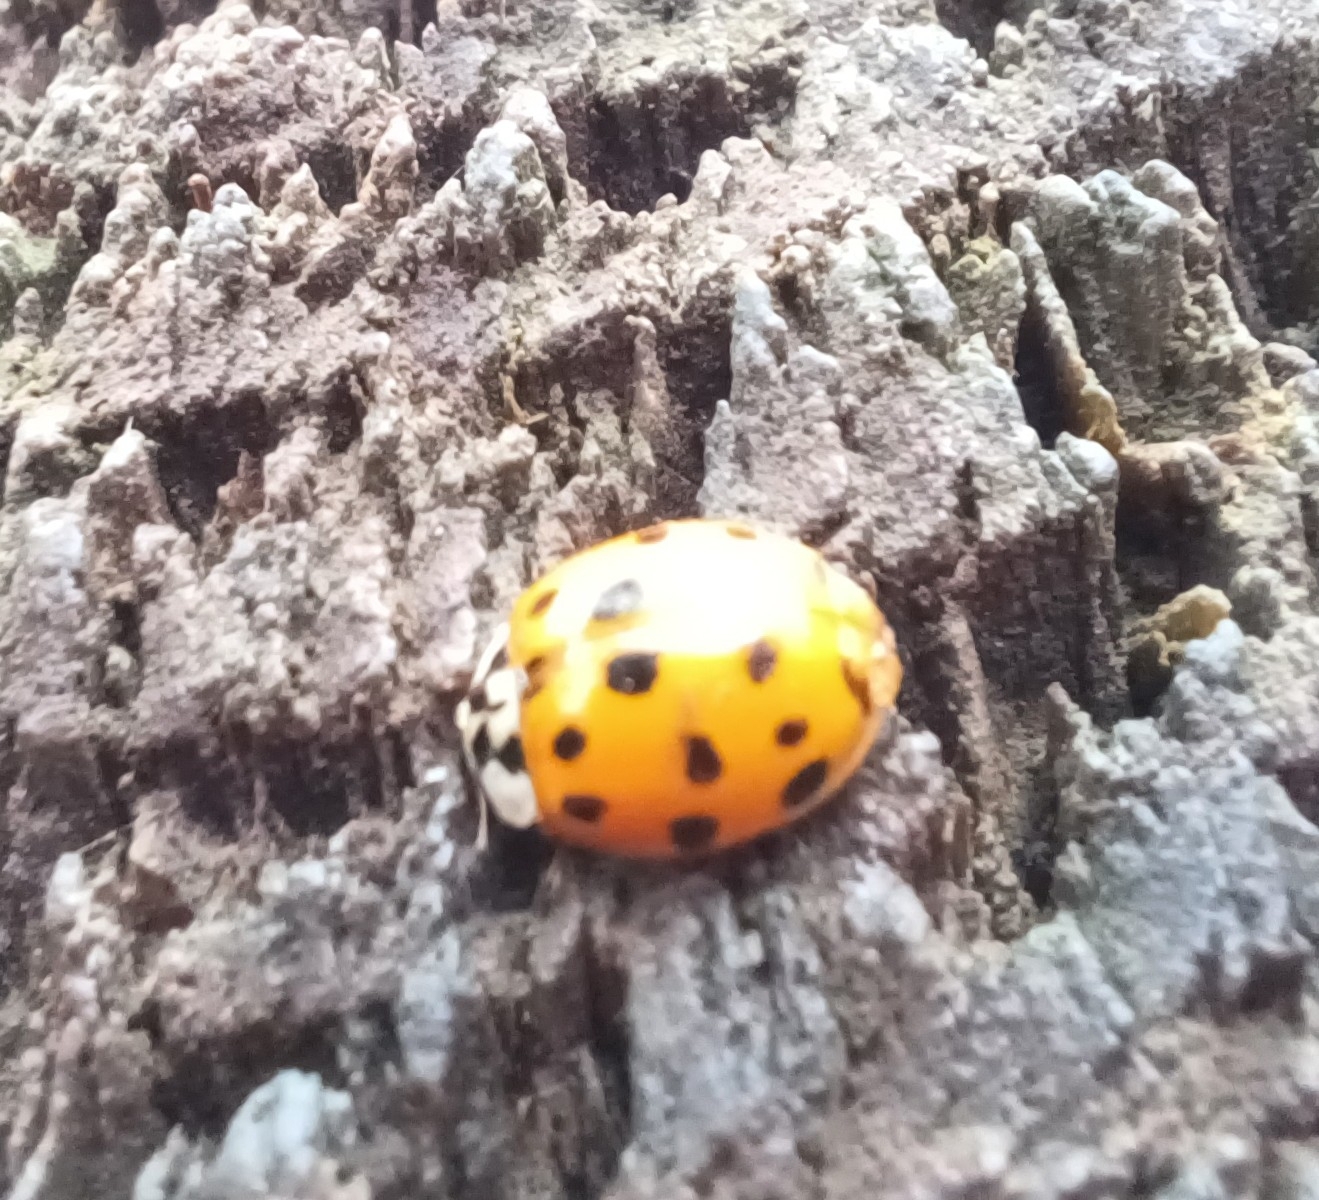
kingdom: Animalia
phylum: Arthropoda
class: Insecta
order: Coleoptera
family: Coccinellidae
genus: Harmonia
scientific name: Harmonia axyridis
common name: Harlequin ladybird
